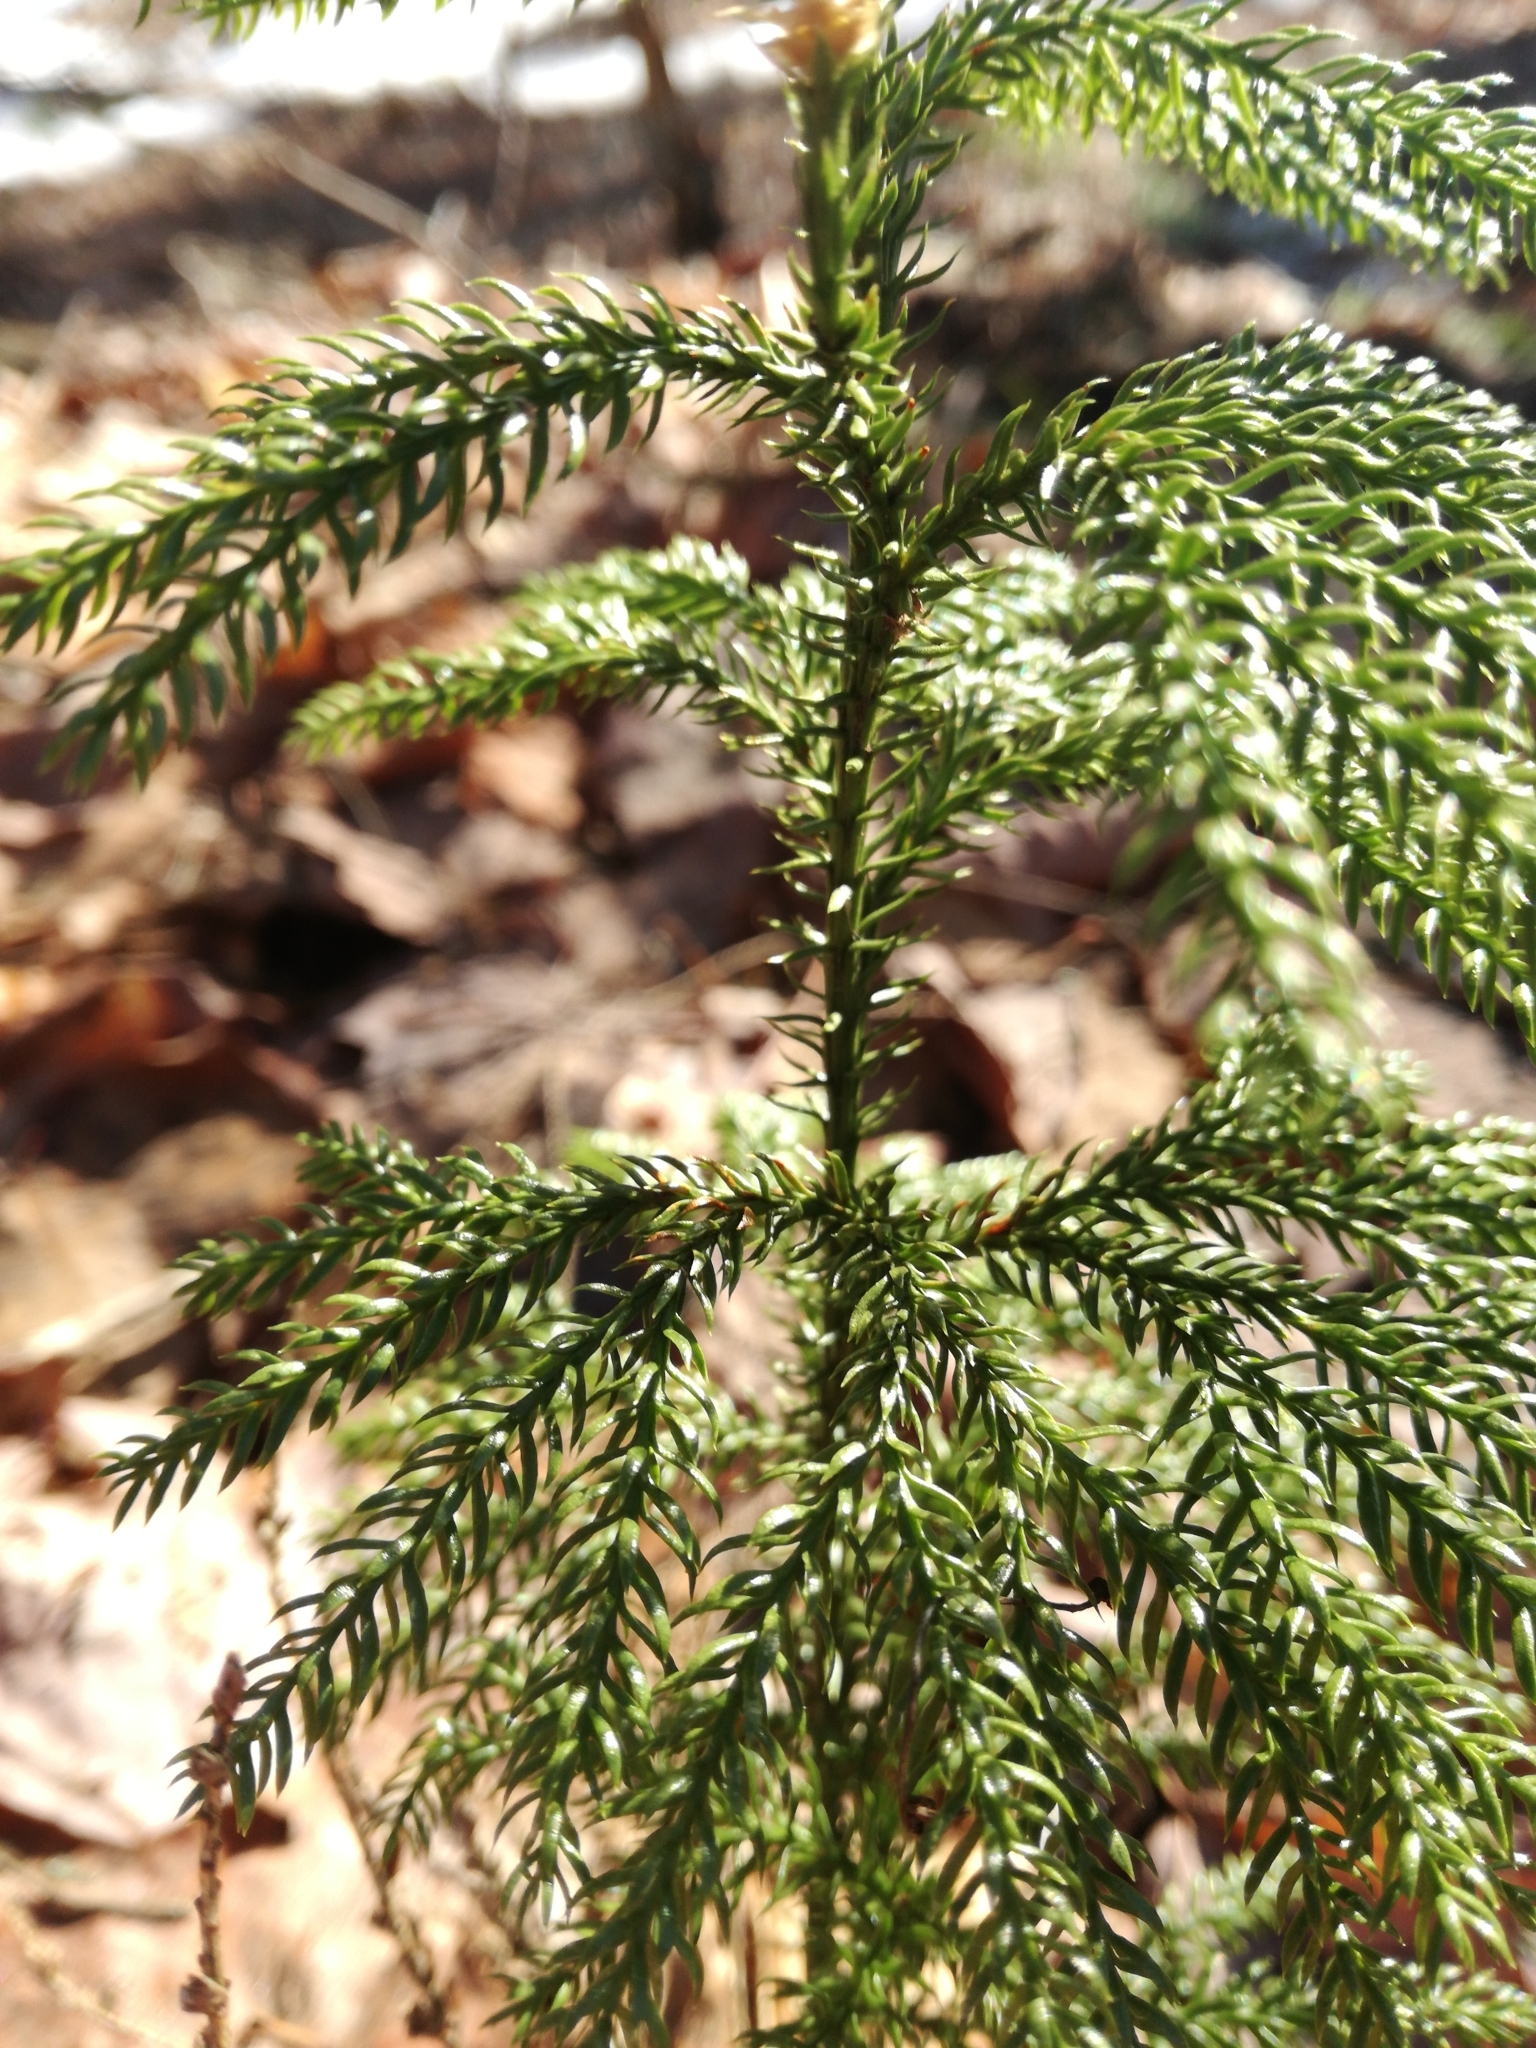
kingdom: Plantae
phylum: Tracheophyta
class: Lycopodiopsida
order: Lycopodiales
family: Lycopodiaceae
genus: Dendrolycopodium
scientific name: Dendrolycopodium dendroideum
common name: Northern tree-clubmoss
